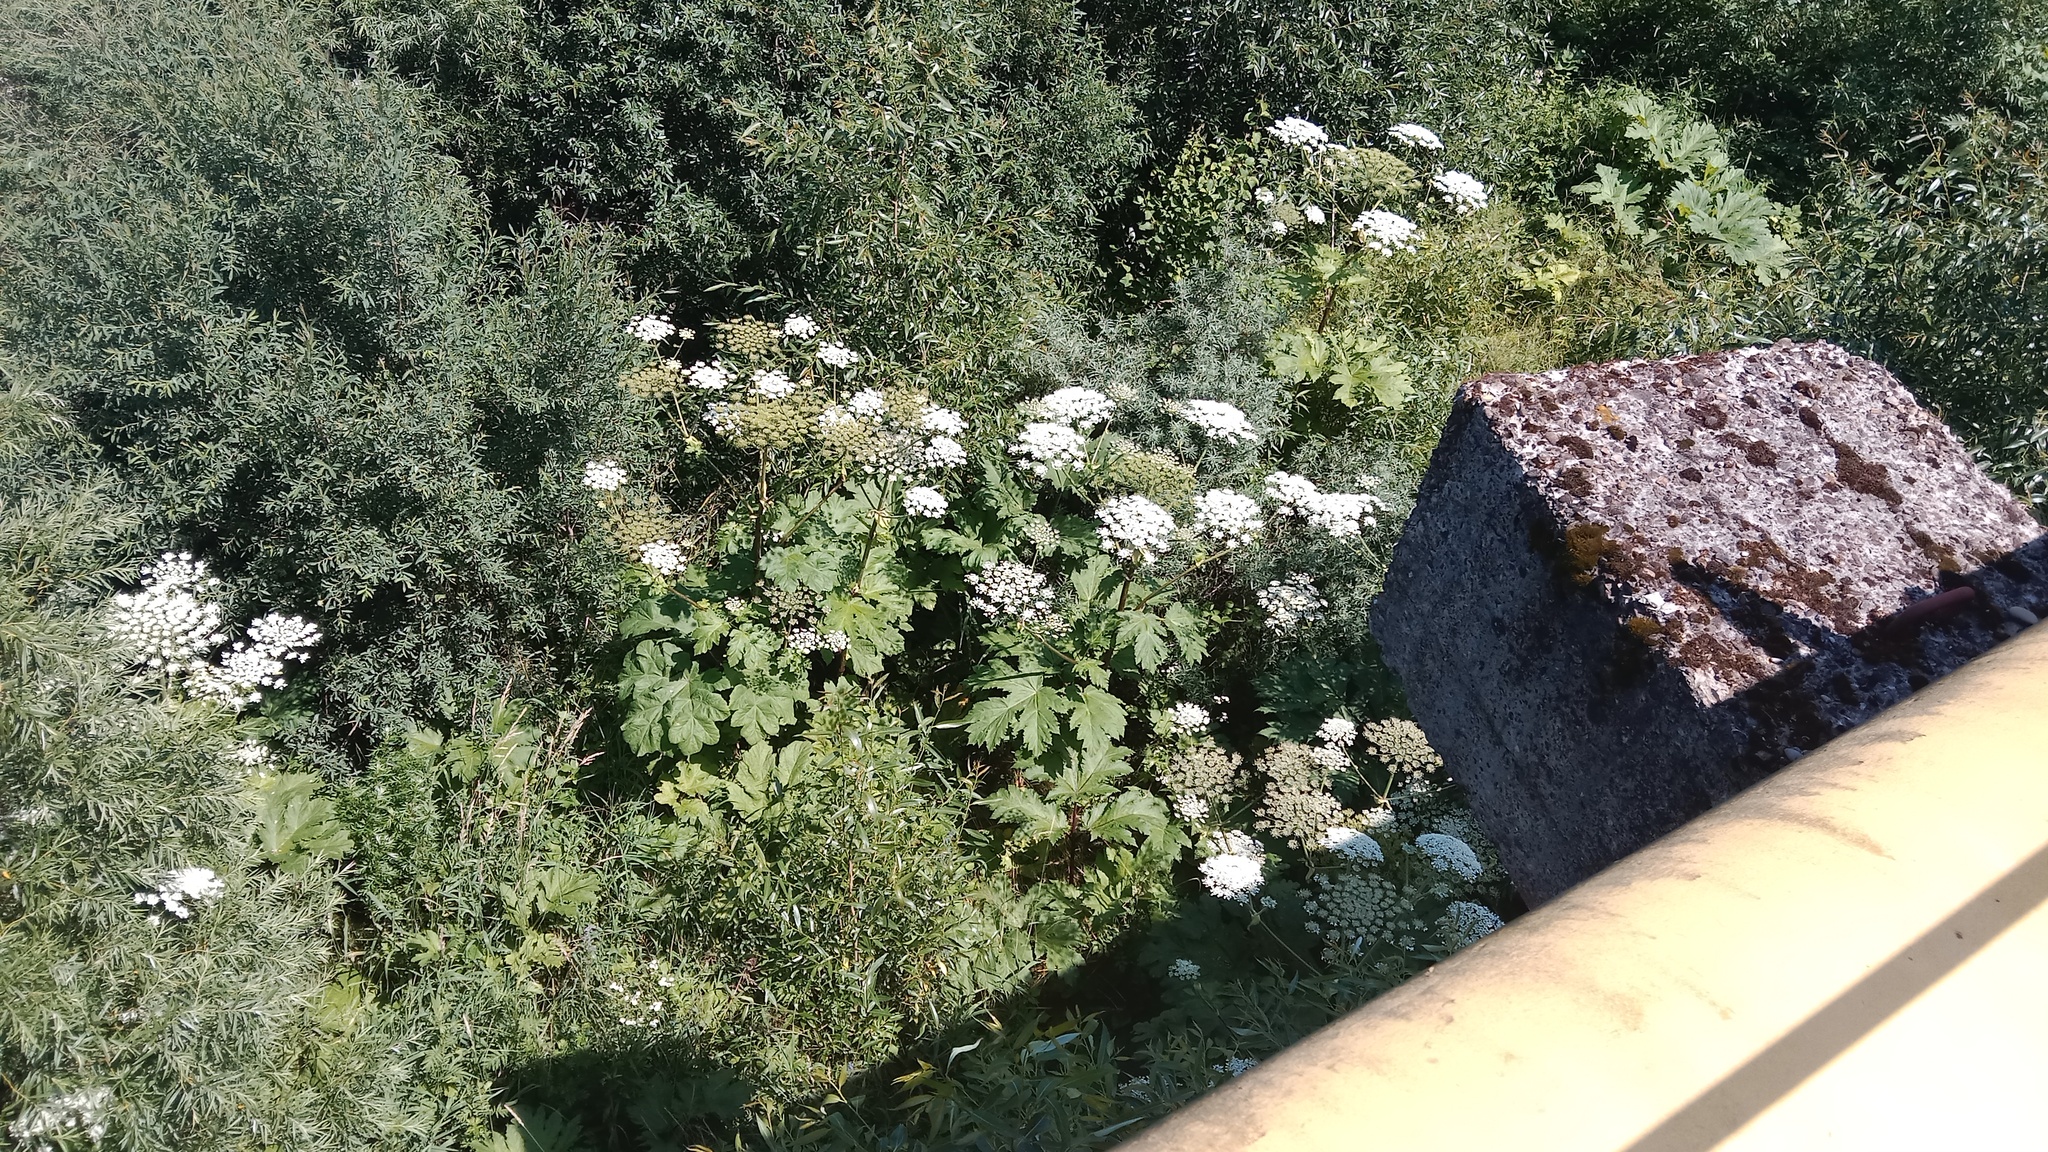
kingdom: Plantae
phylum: Tracheophyta
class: Magnoliopsida
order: Apiales
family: Apiaceae
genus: Heracleum
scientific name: Heracleum sosnowskyi
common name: Sosnowsky's hogweed
